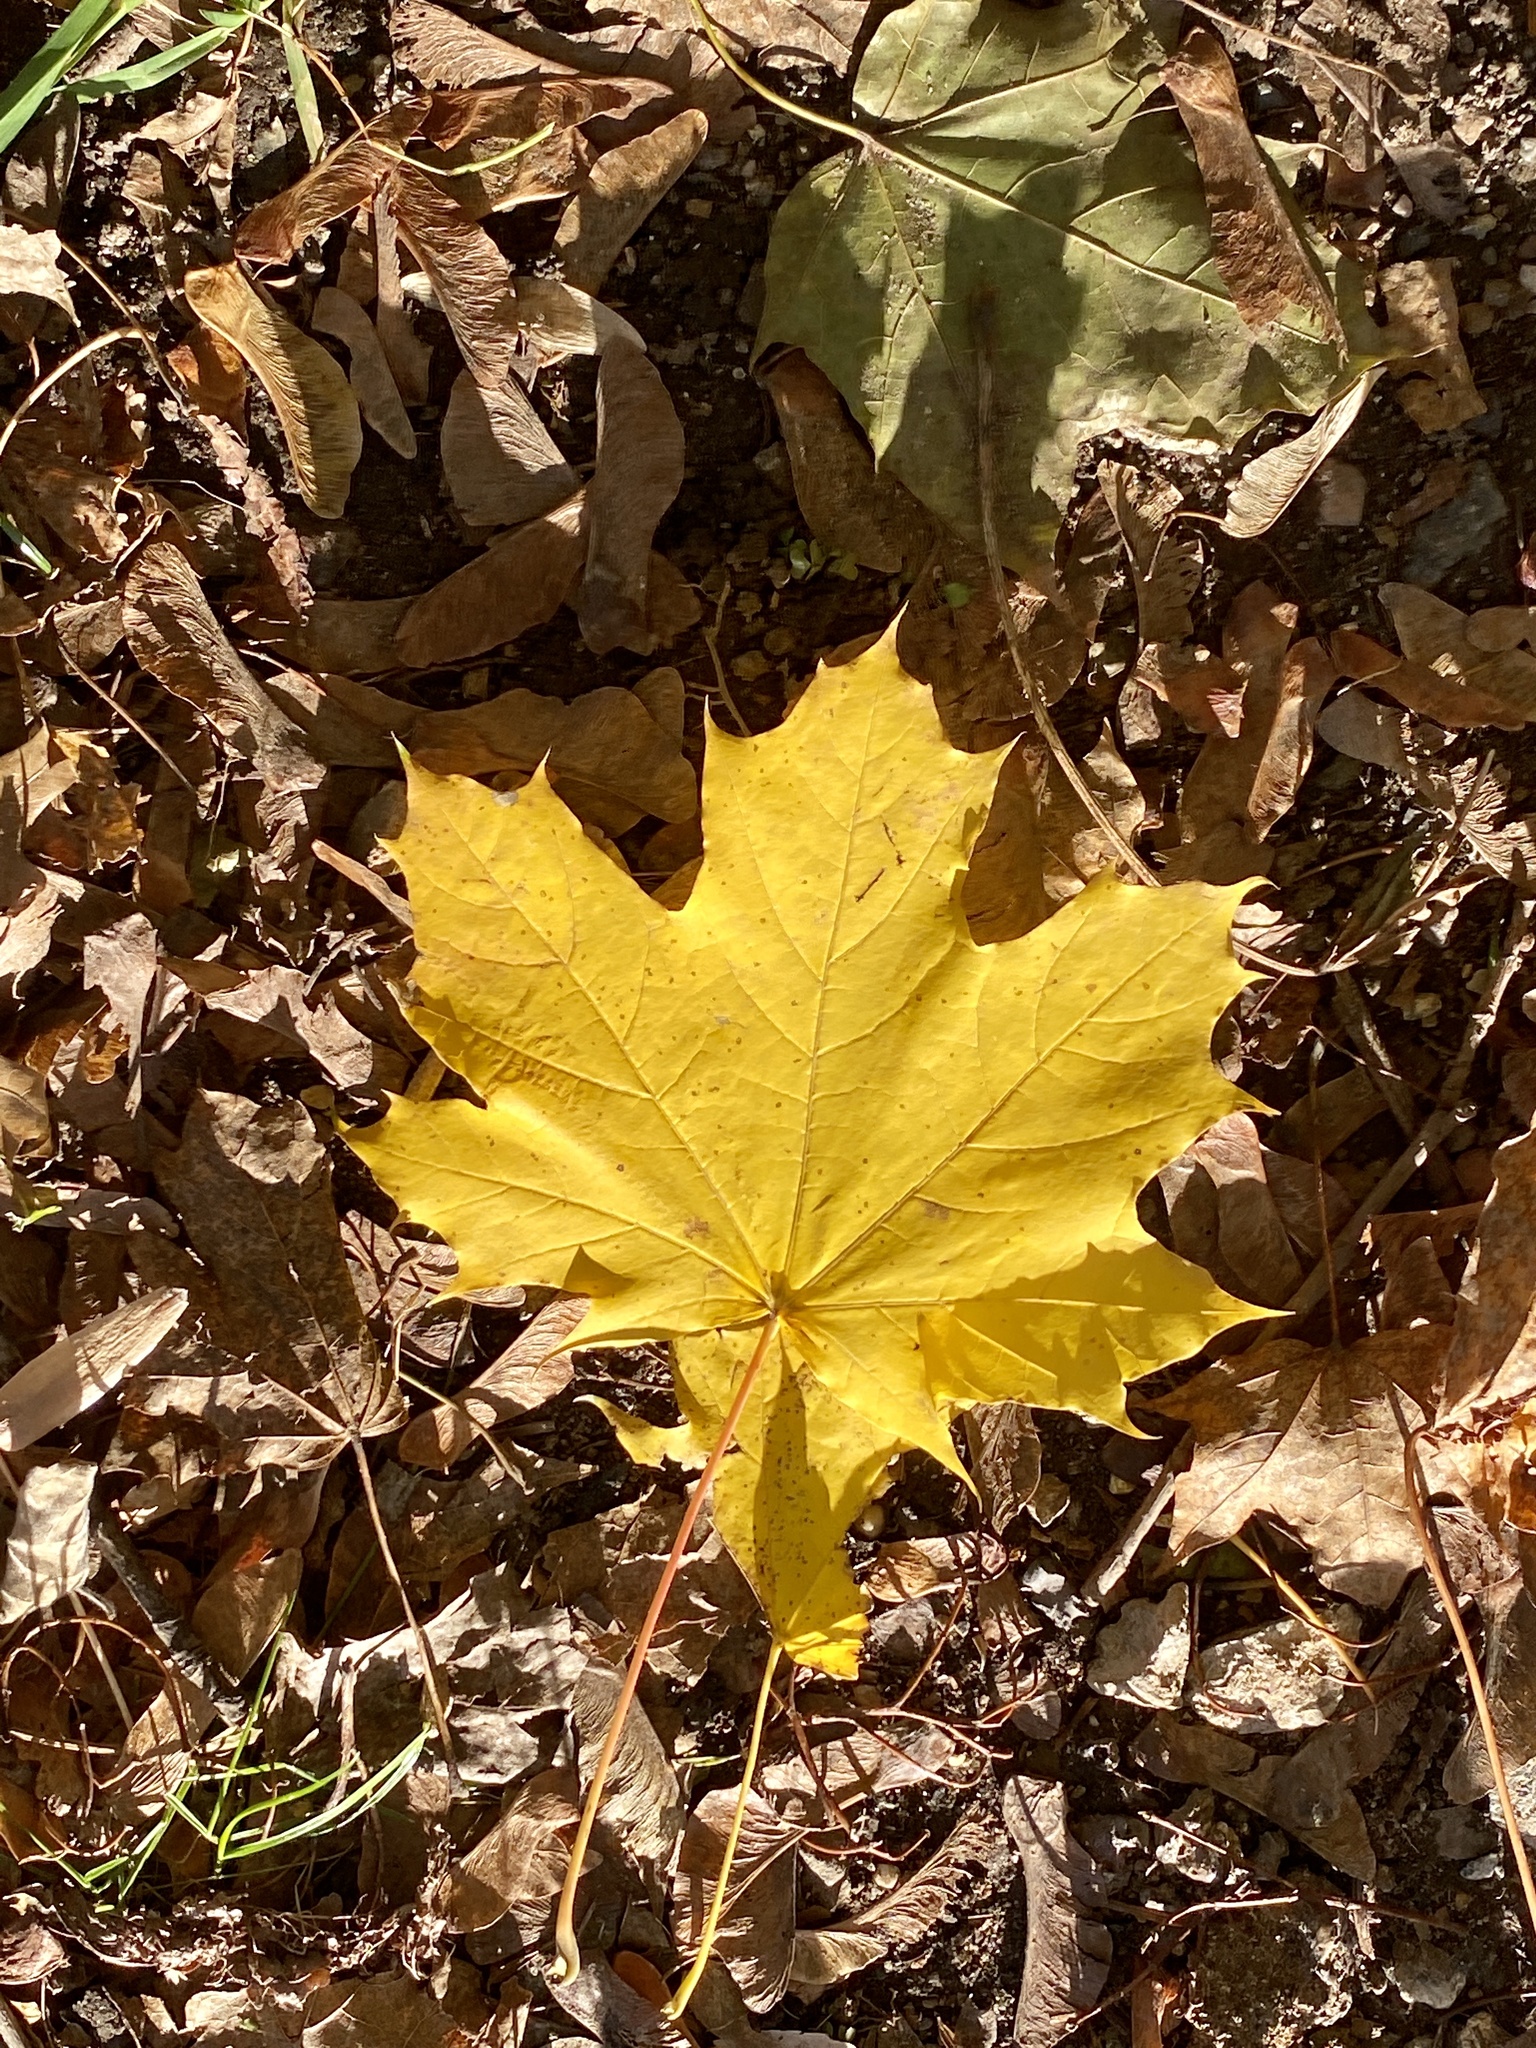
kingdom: Plantae
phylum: Tracheophyta
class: Magnoliopsida
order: Sapindales
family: Sapindaceae
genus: Acer
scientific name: Acer platanoides
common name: Norway maple
